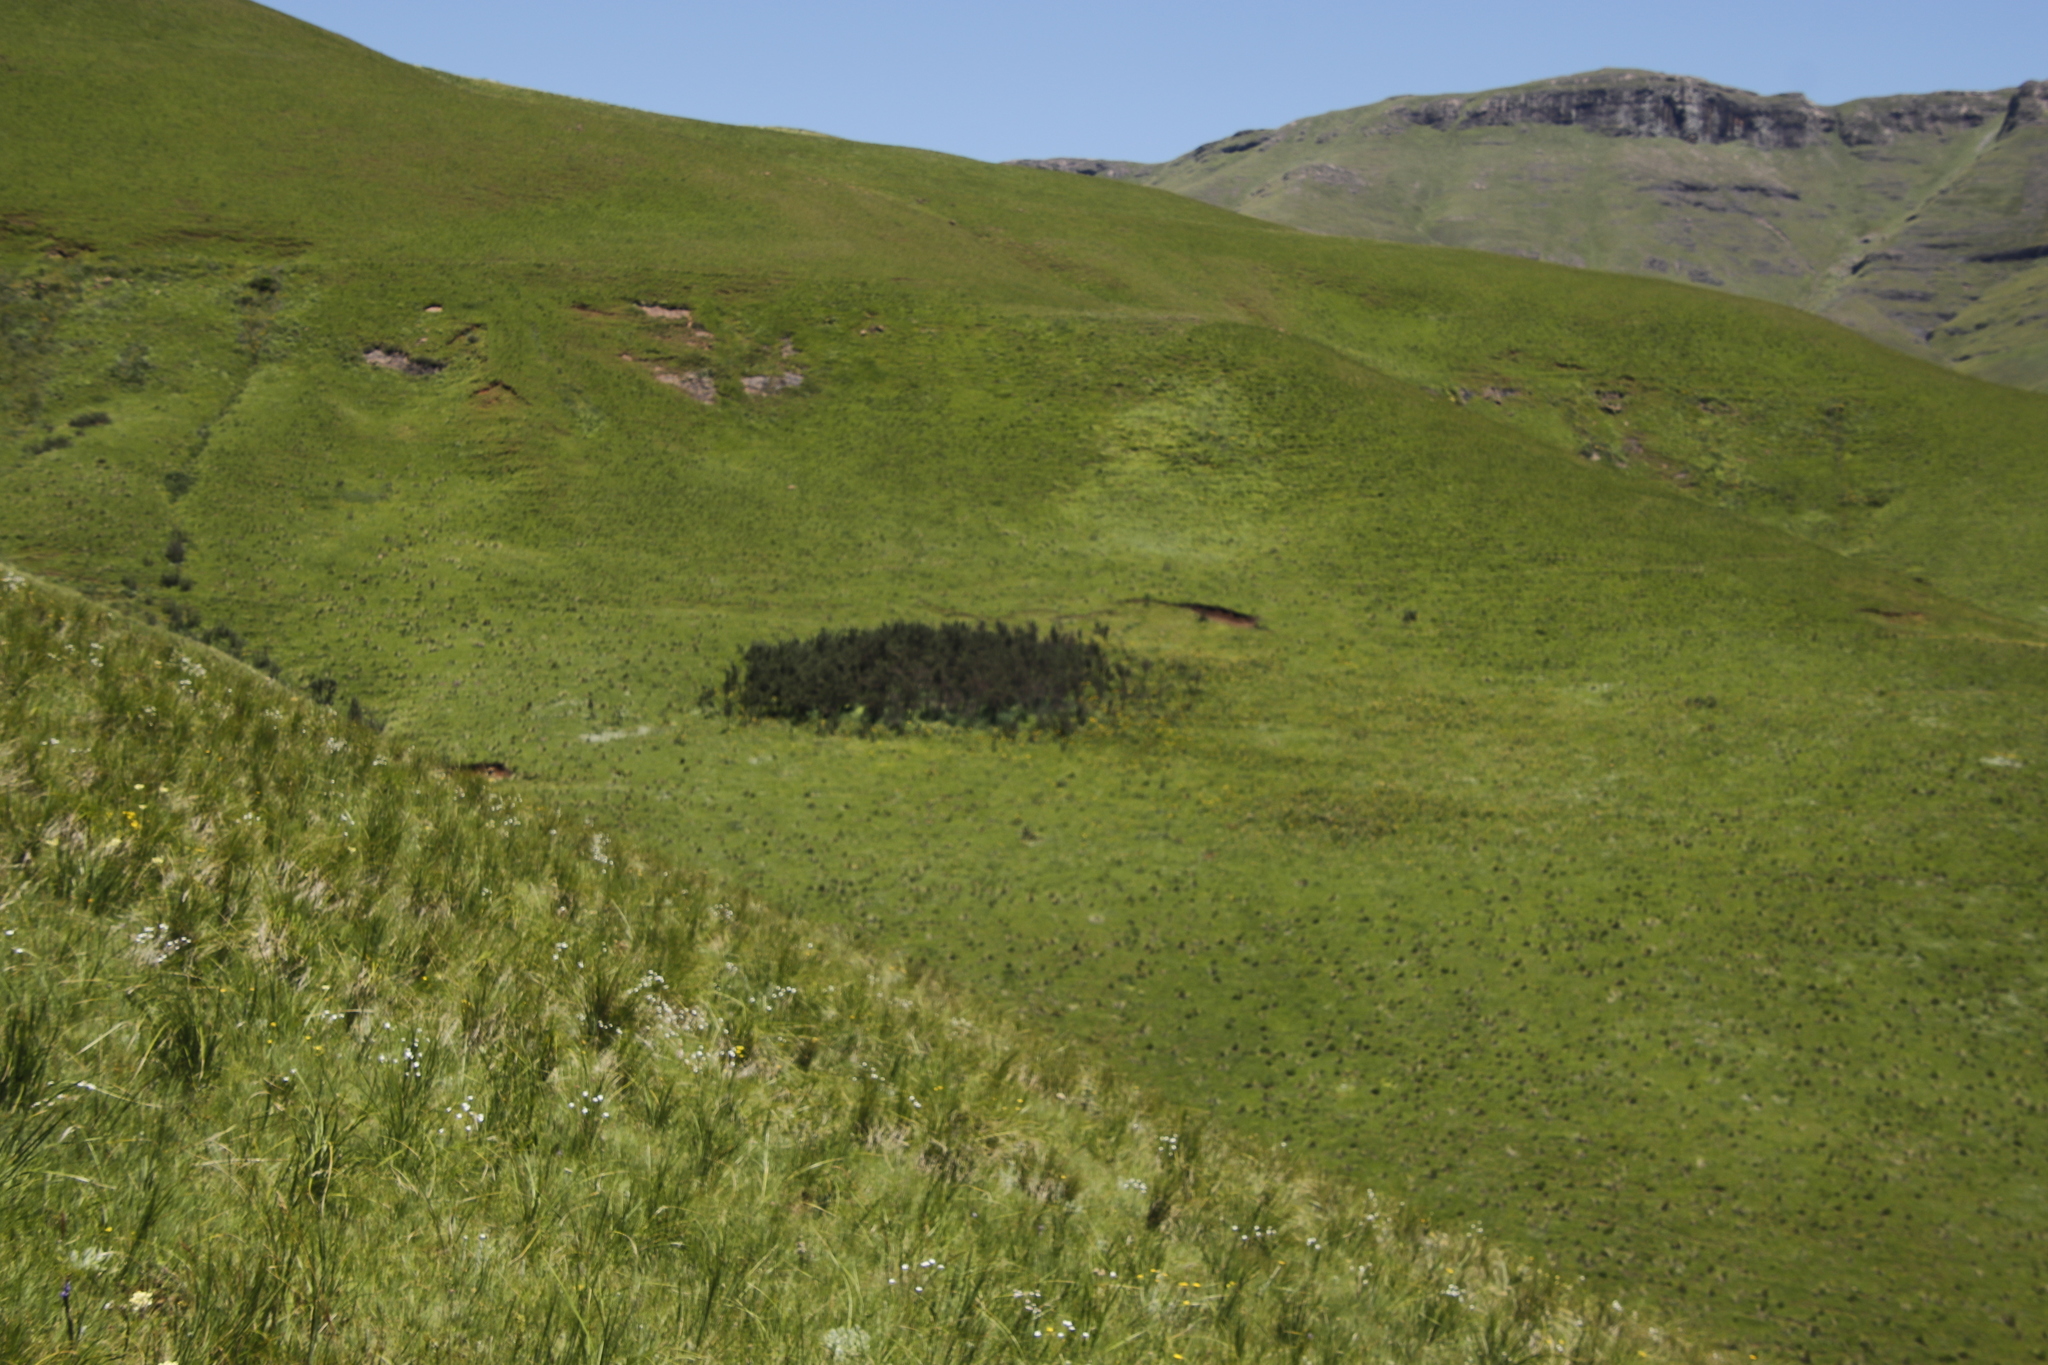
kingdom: Plantae
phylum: Tracheophyta
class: Magnoliopsida
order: Rosales
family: Rosaceae
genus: Leucosidea
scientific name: Leucosidea sericea
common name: Oldwood
